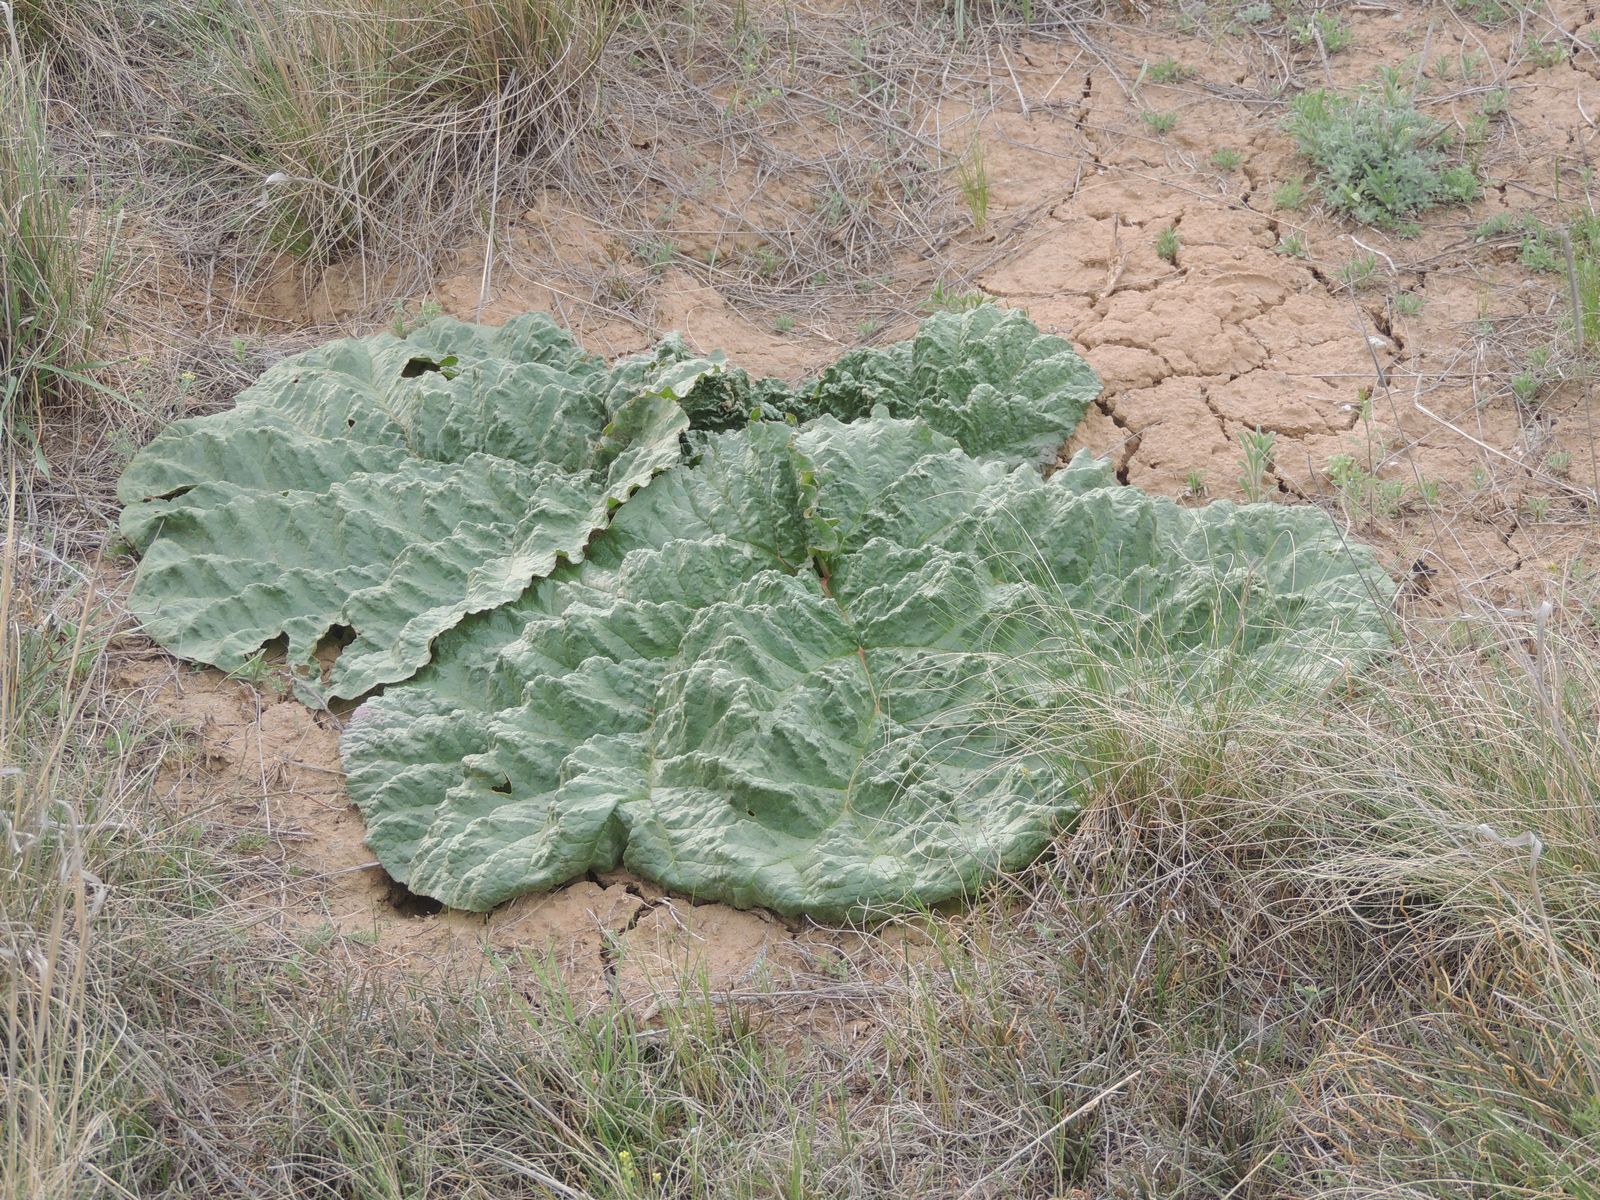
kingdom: Plantae
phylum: Tracheophyta
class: Magnoliopsida
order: Caryophyllales
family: Polygonaceae
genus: Rheum
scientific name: Rheum tataricum
